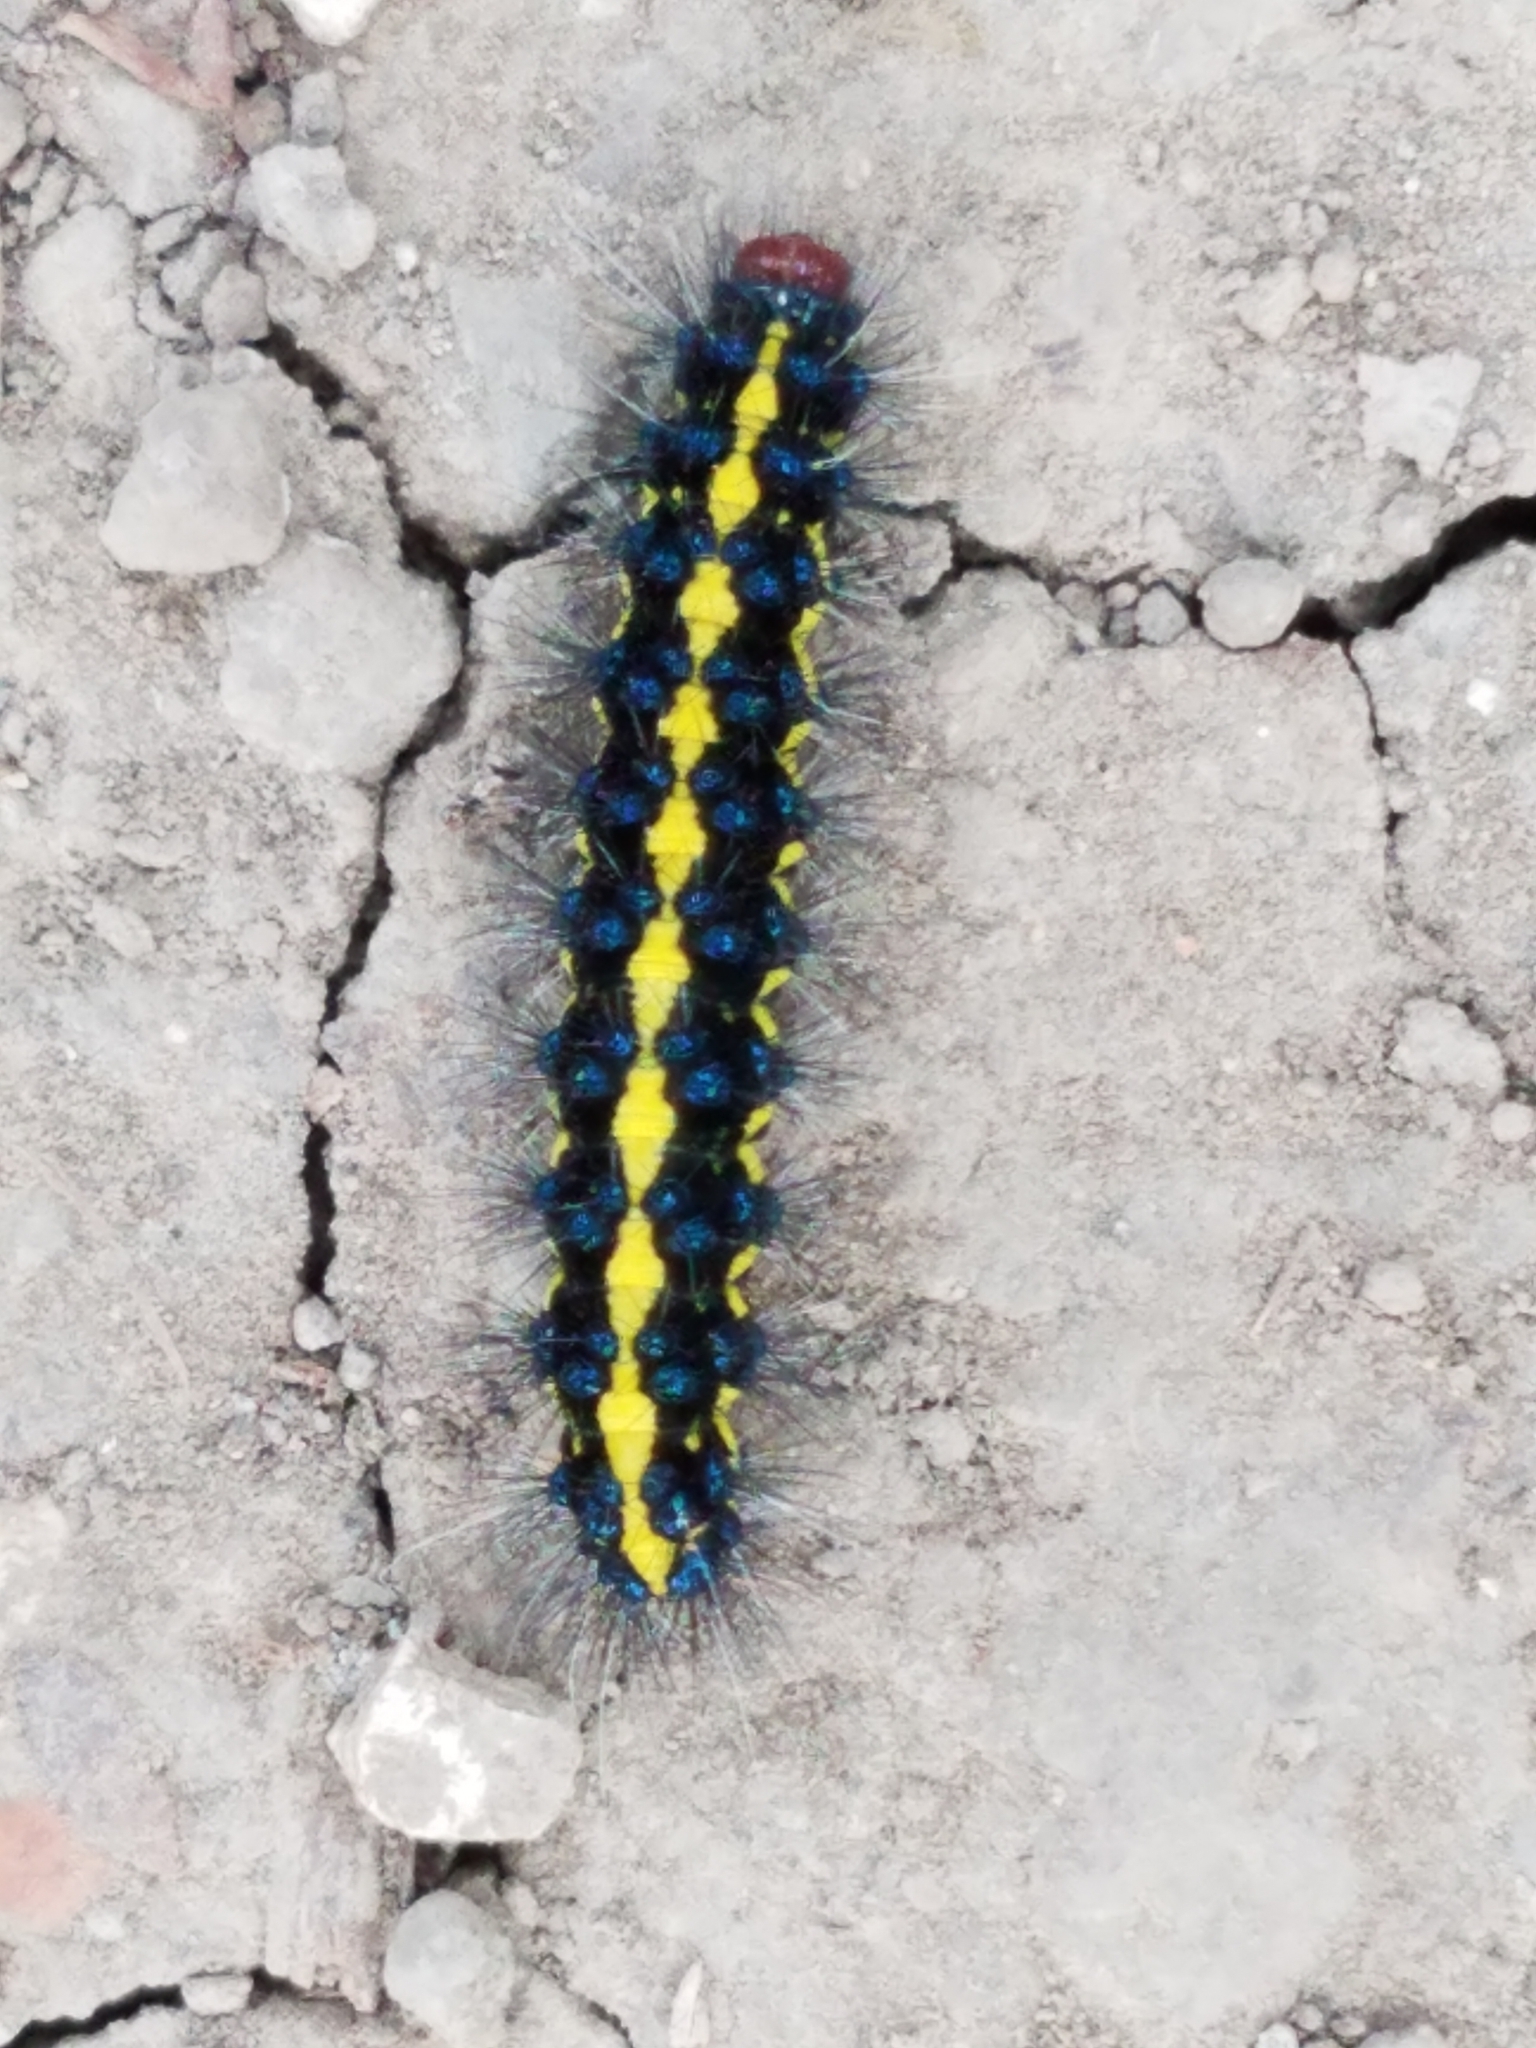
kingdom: Animalia
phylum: Arthropoda
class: Insecta
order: Lepidoptera
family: Erebidae
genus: Gnophaela
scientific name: Gnophaela latipennis
